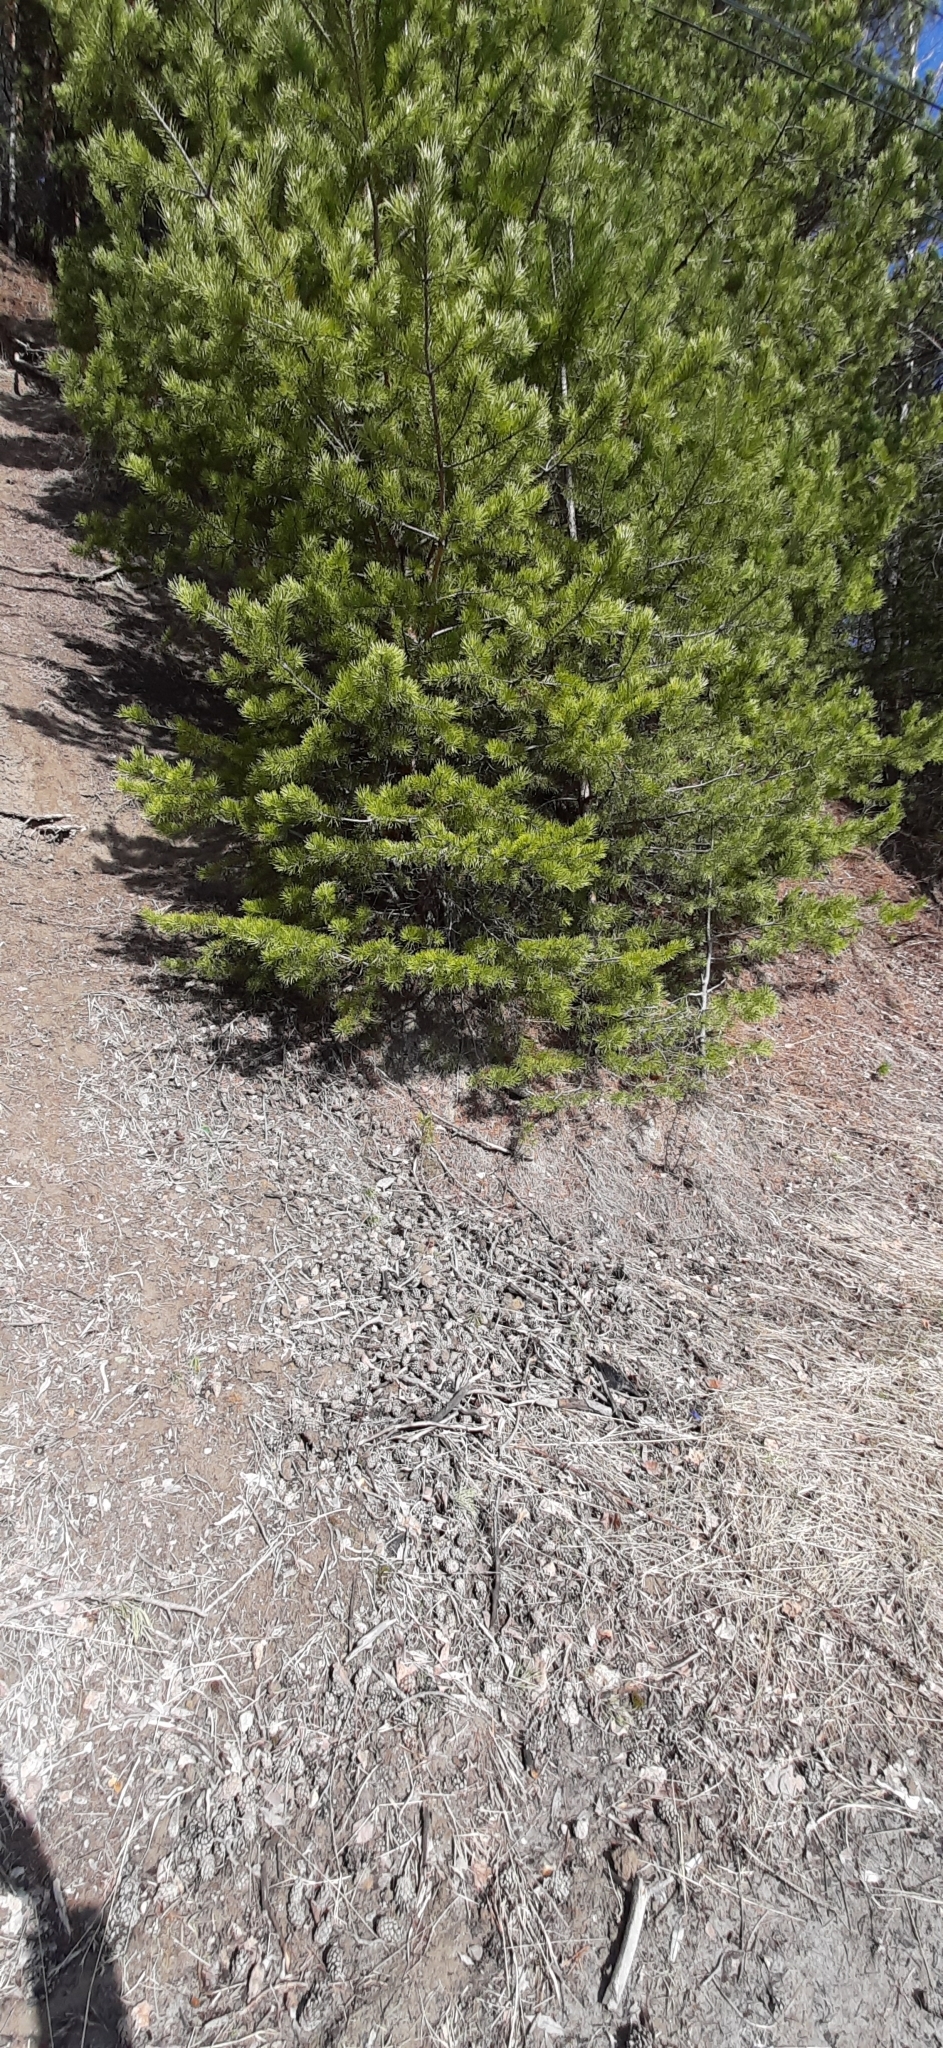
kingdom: Plantae
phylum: Tracheophyta
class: Pinopsida
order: Pinales
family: Pinaceae
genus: Pinus
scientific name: Pinus sylvestris
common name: Scots pine
